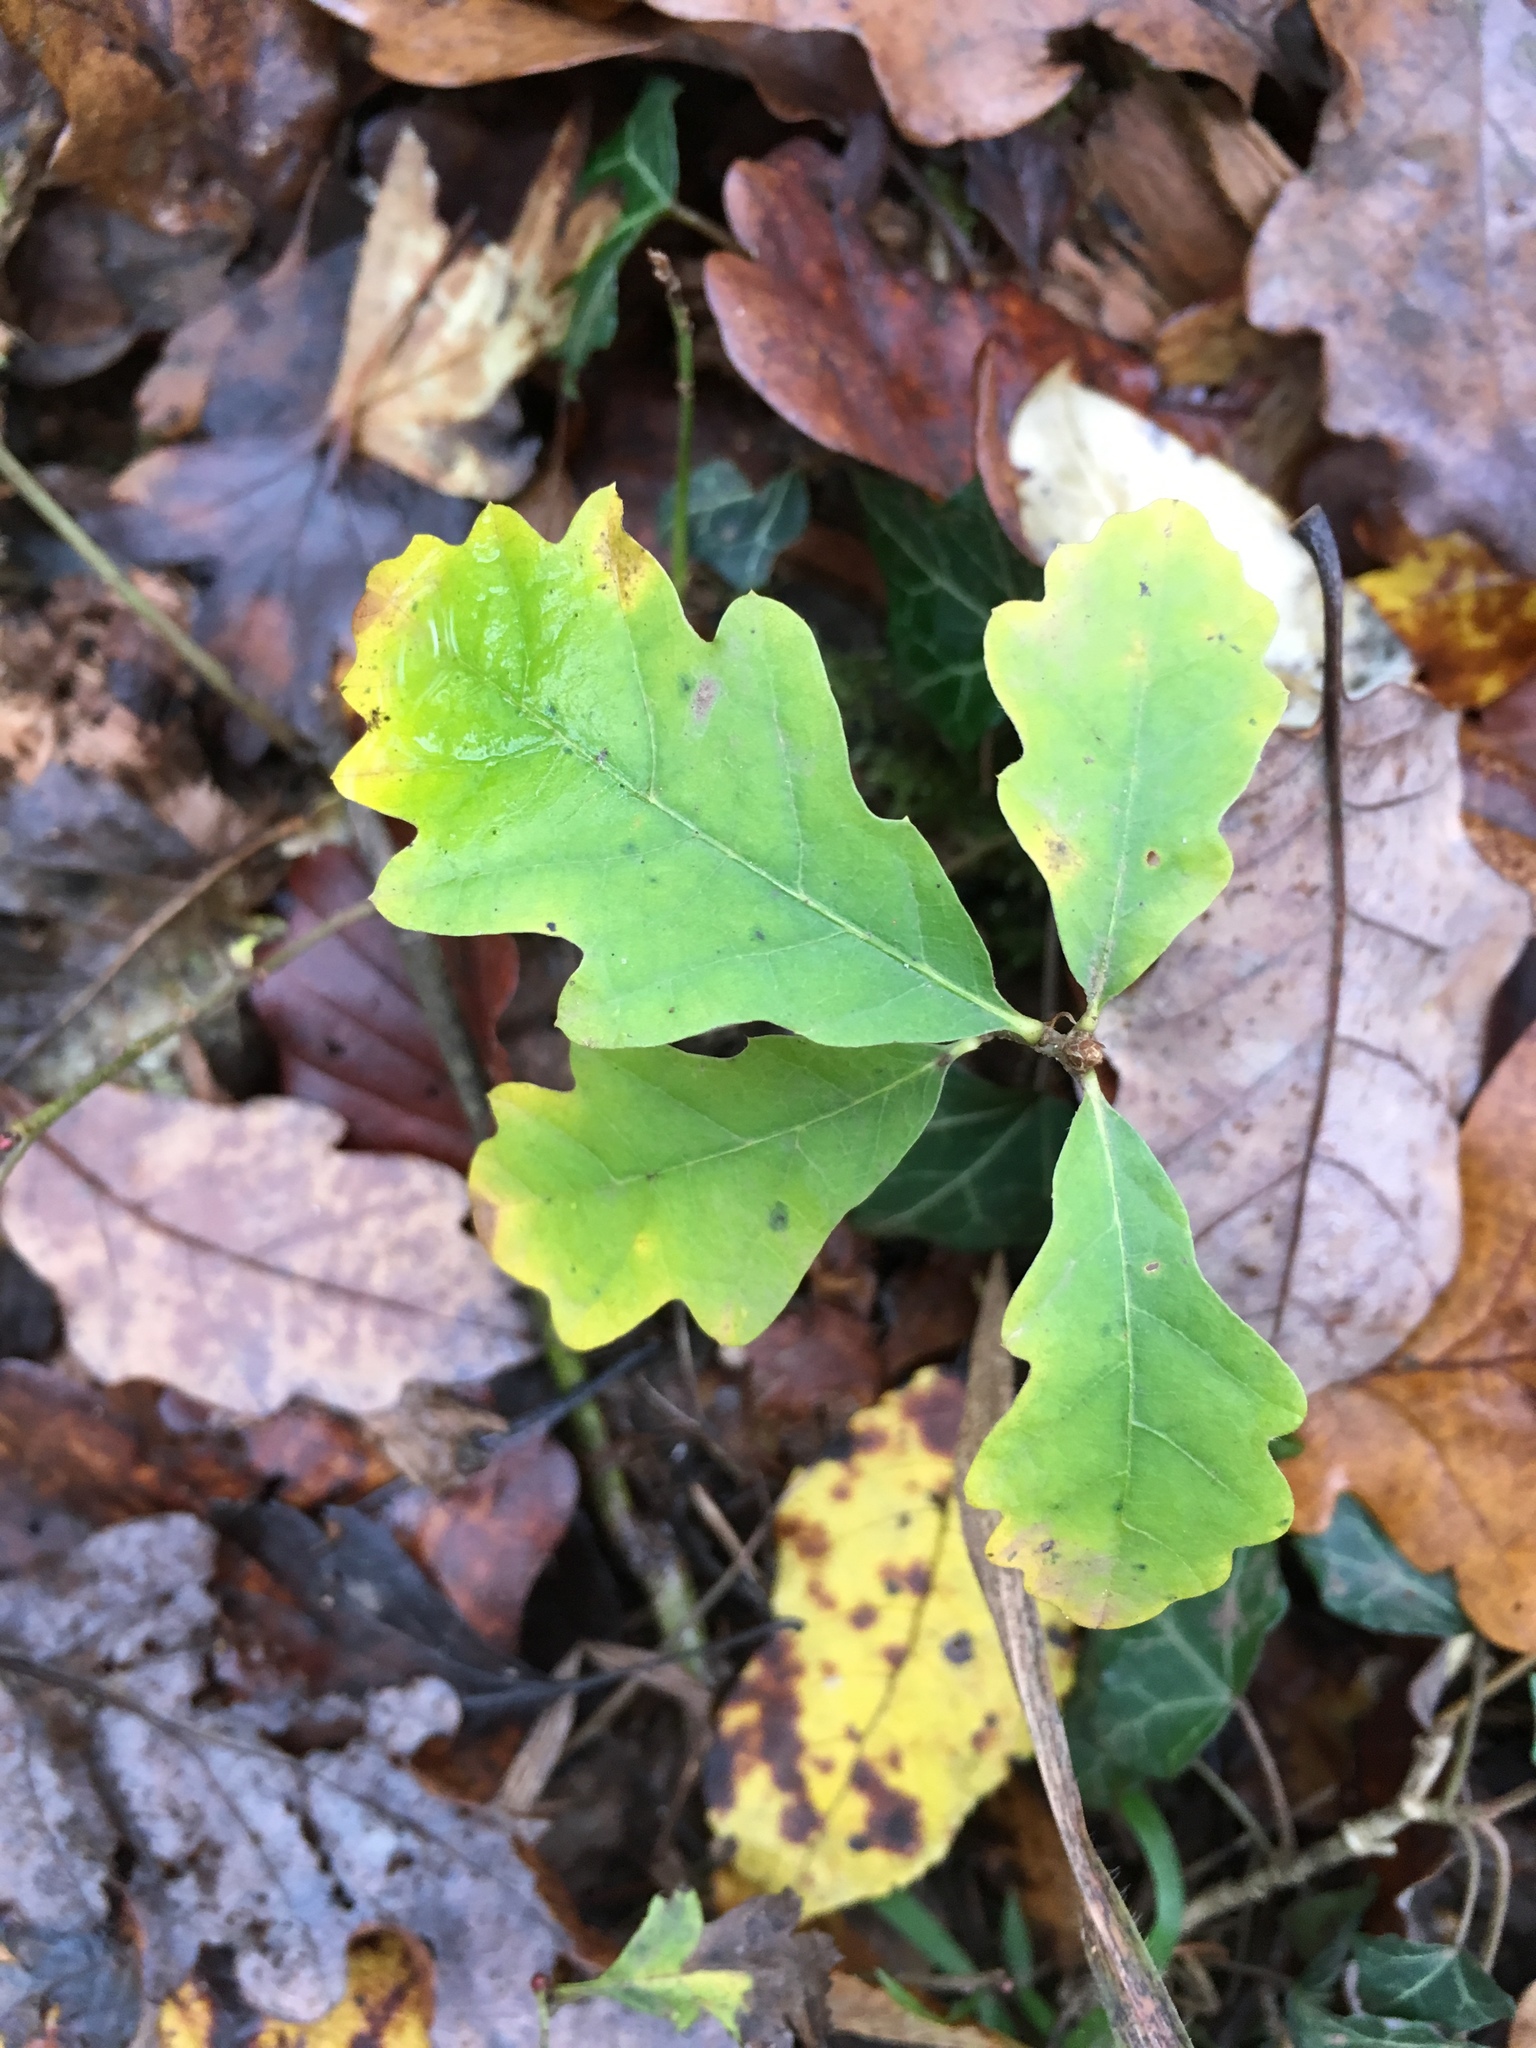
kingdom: Plantae
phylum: Tracheophyta
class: Magnoliopsida
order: Fagales
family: Fagaceae
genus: Quercus
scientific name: Quercus robur
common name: Pedunculate oak
